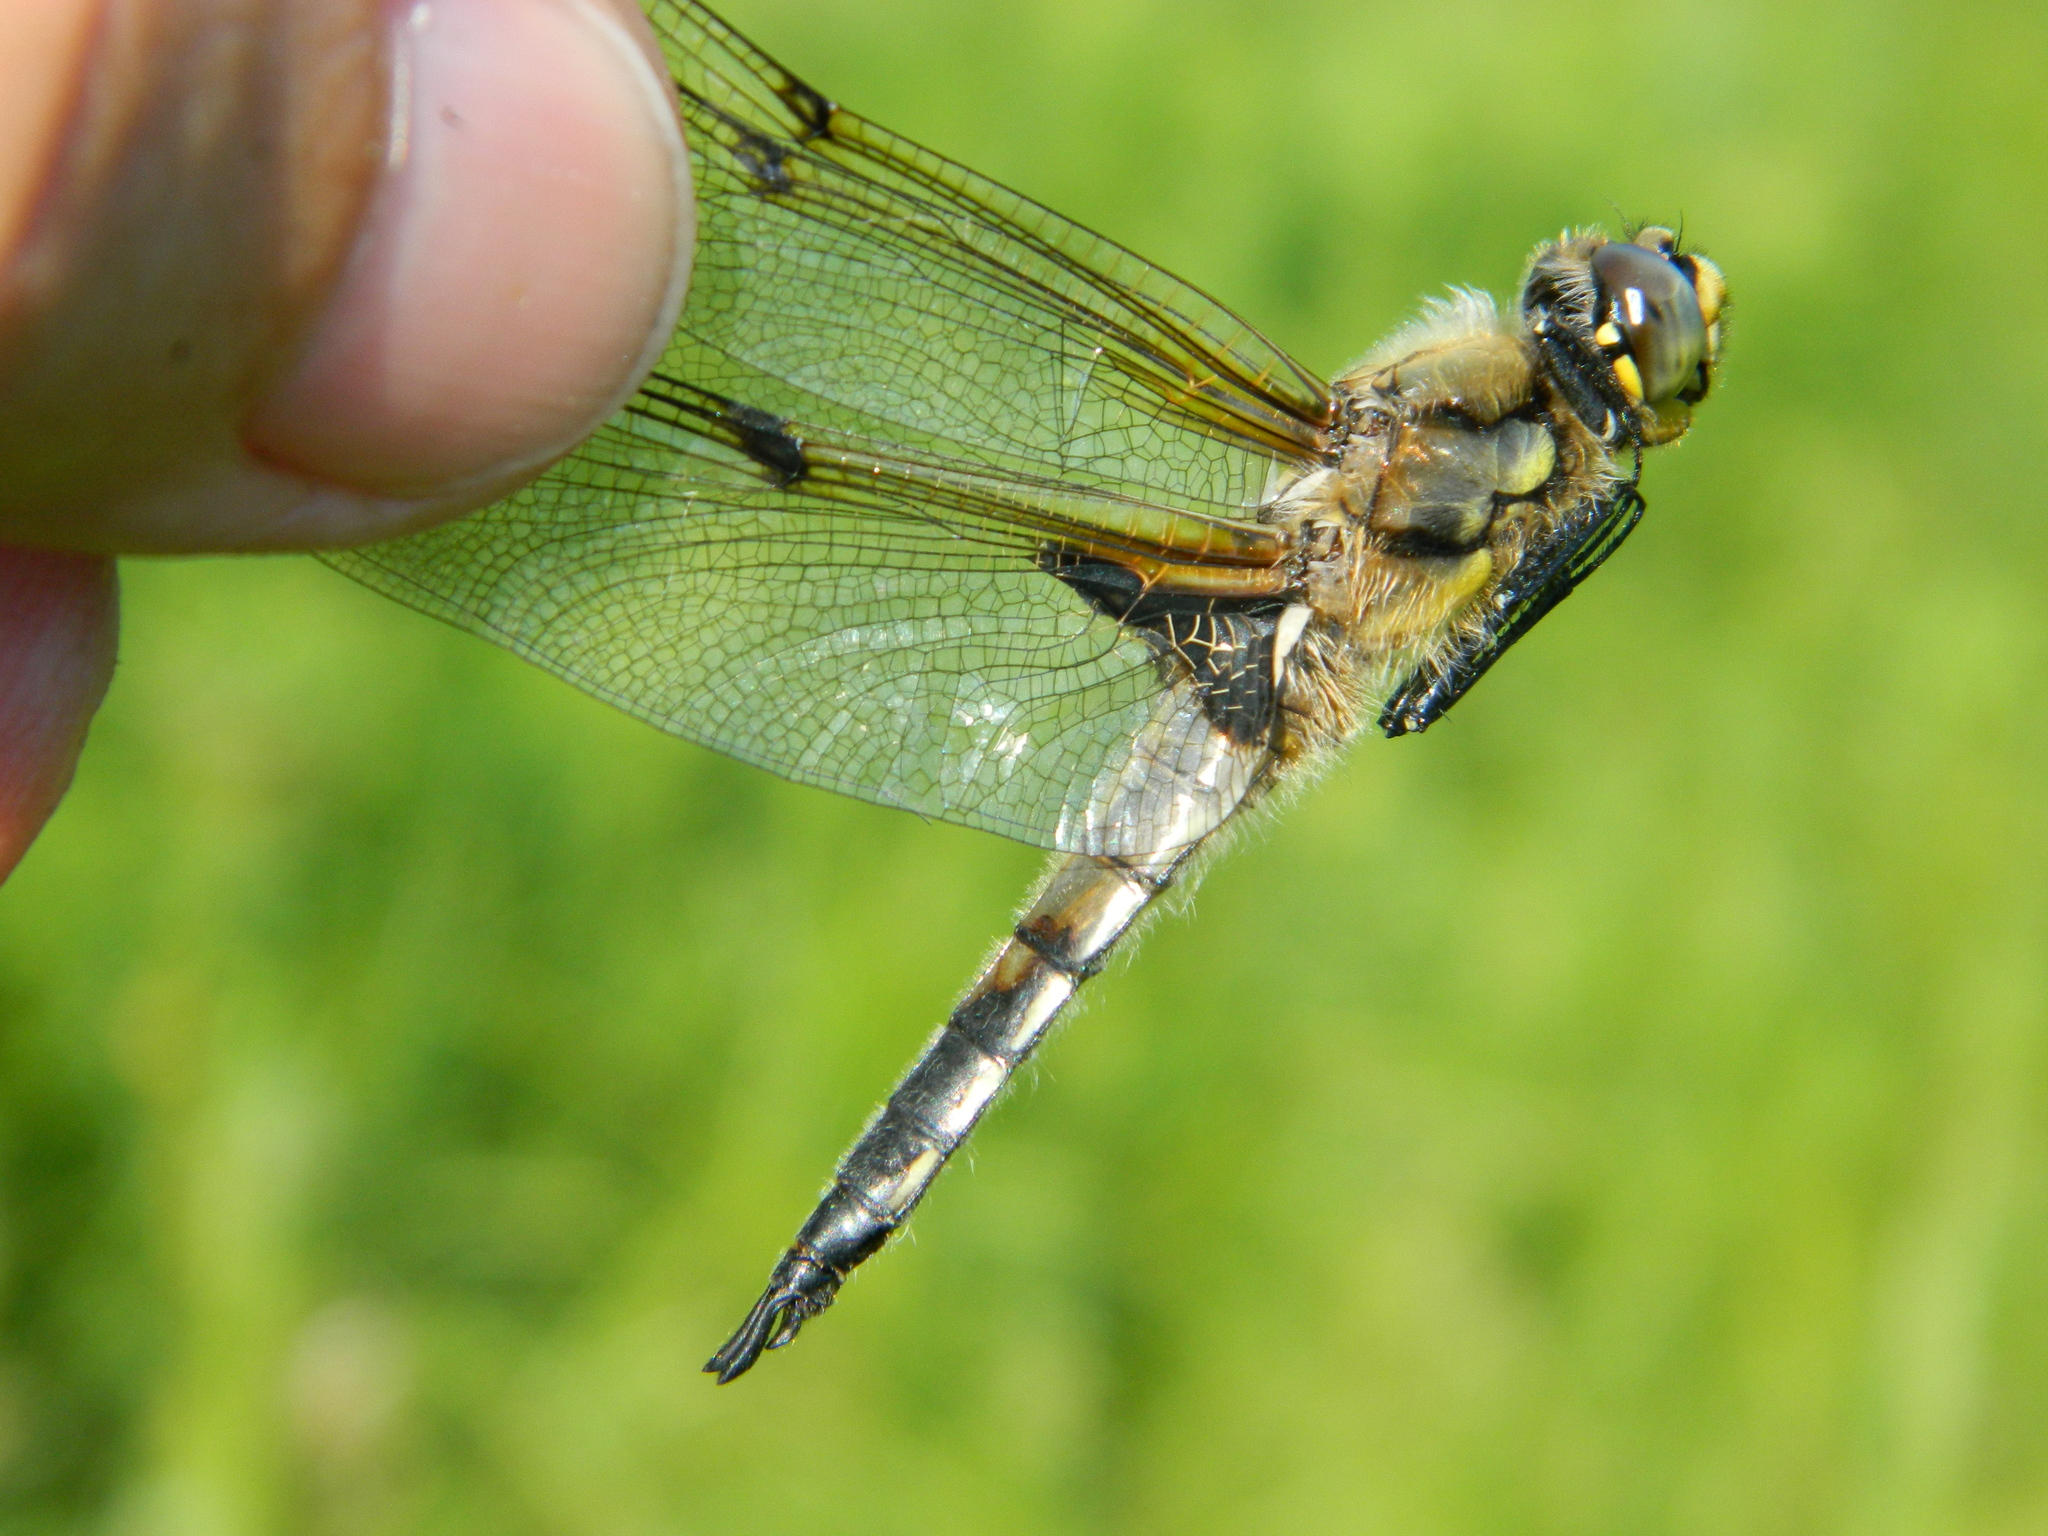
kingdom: Animalia
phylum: Arthropoda
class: Insecta
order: Odonata
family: Libellulidae
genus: Libellula
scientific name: Libellula quadrimaculata
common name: Four-spotted chaser
